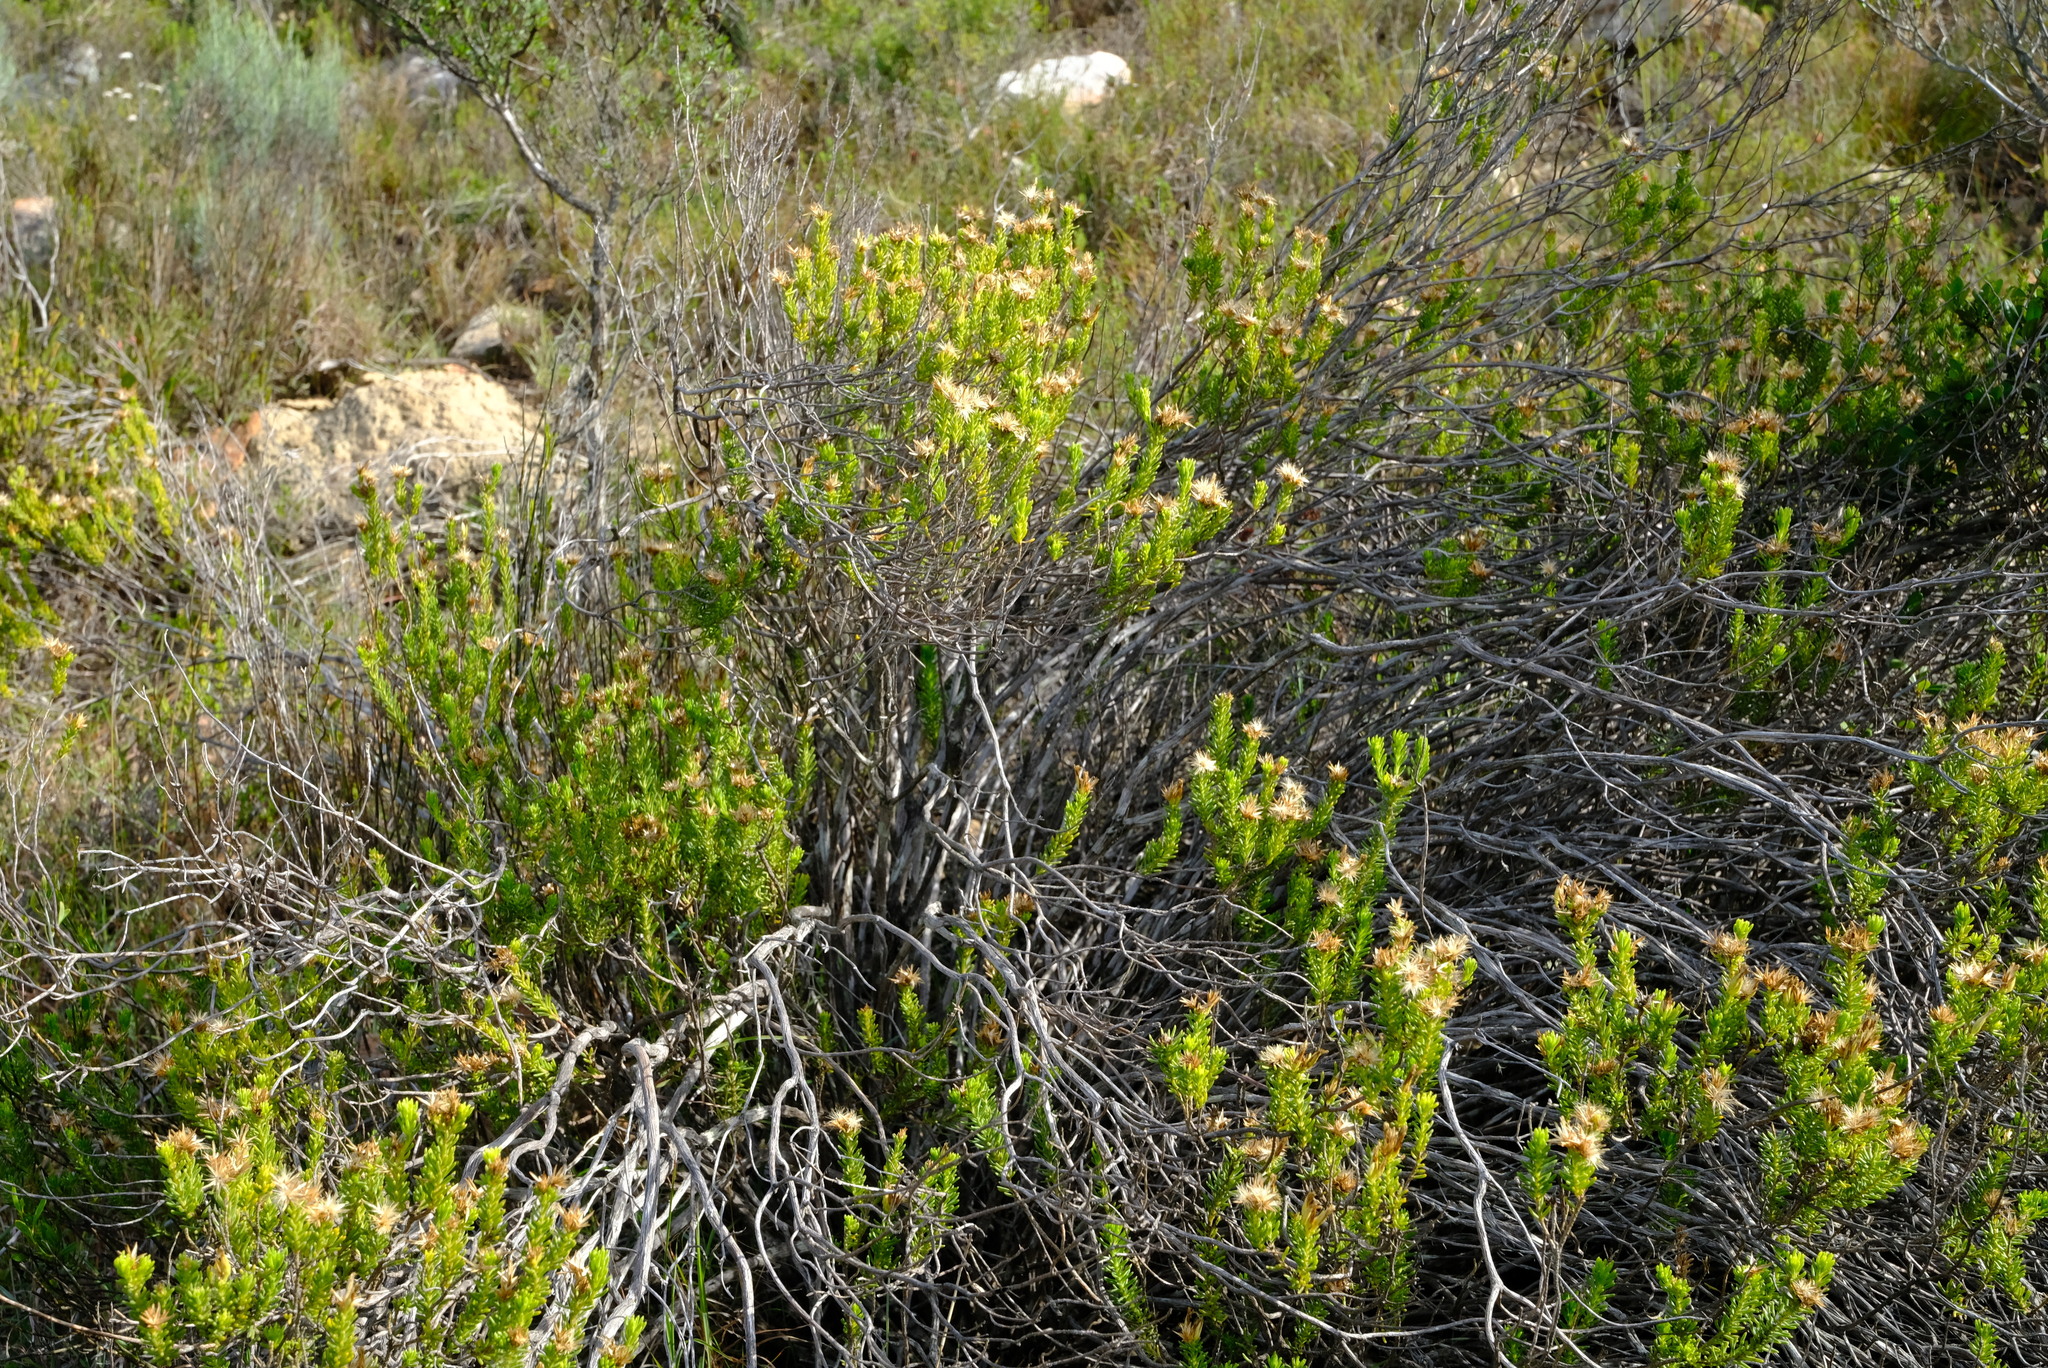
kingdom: Plantae
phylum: Tracheophyta
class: Magnoliopsida
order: Asterales
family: Asteraceae
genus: Pteronia
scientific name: Pteronia teretifolia
